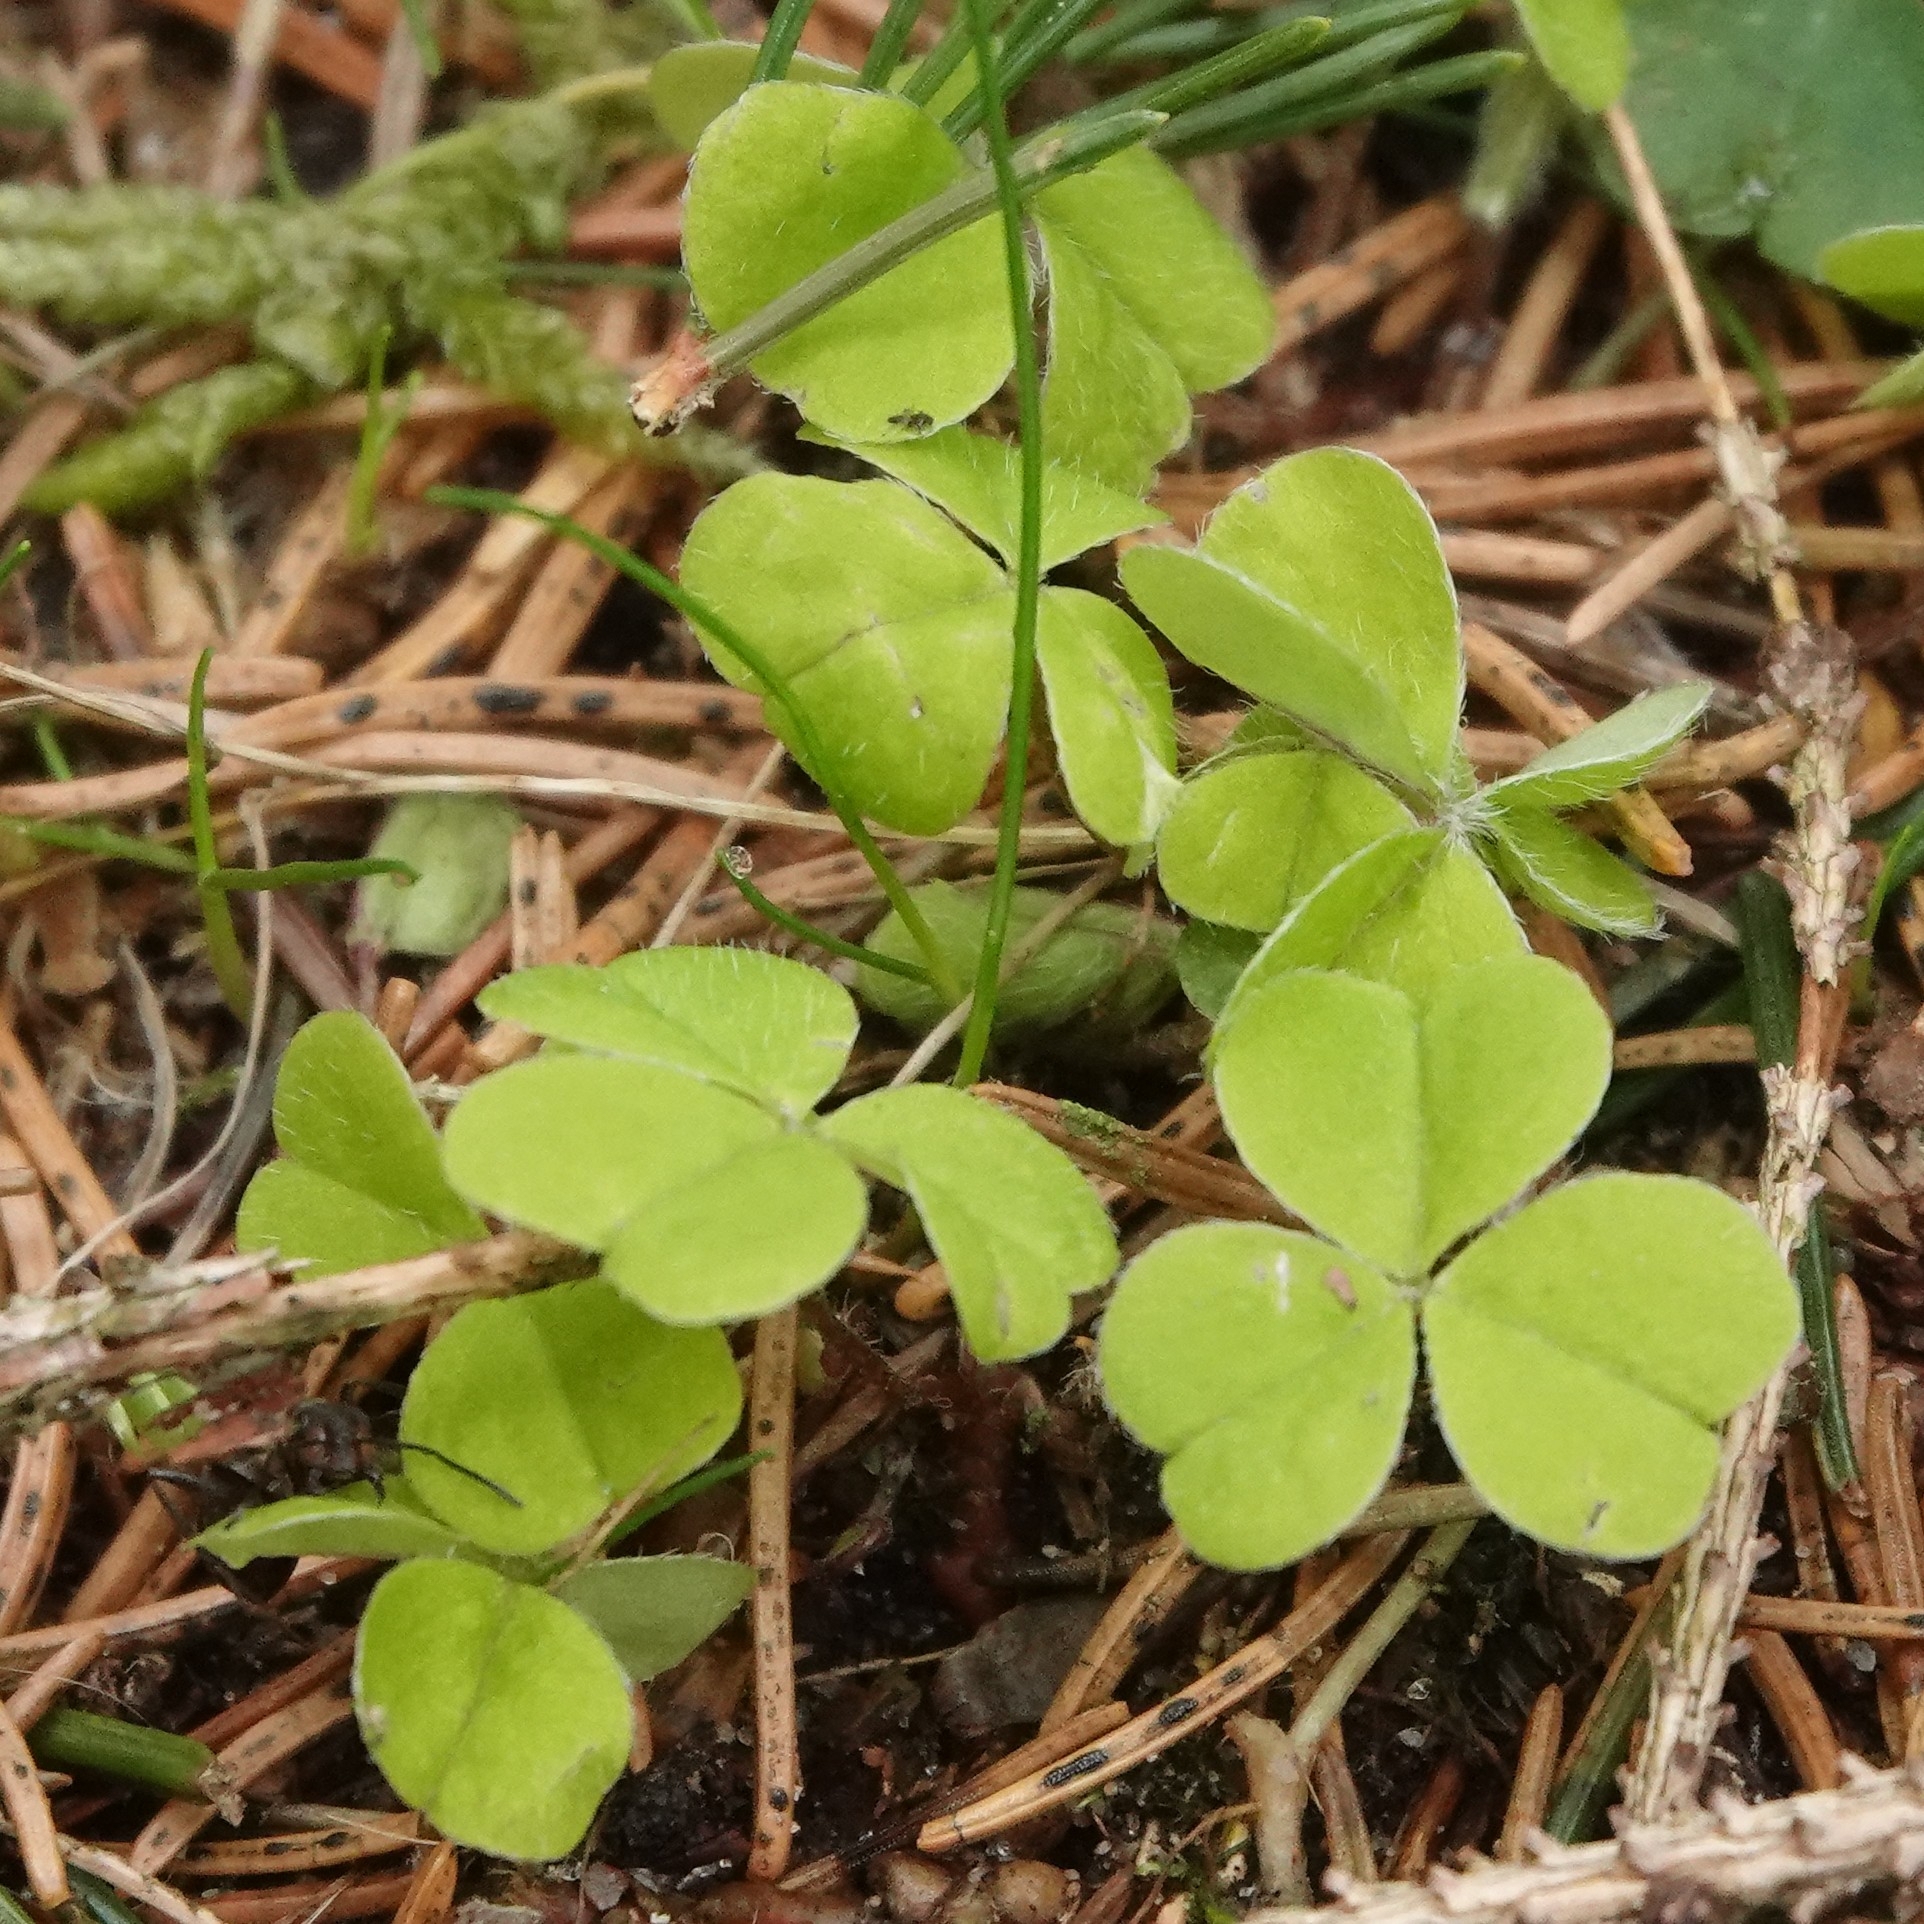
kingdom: Plantae
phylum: Tracheophyta
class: Magnoliopsida
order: Oxalidales
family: Oxalidaceae
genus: Oxalis
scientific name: Oxalis acetosella
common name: Wood-sorrel
